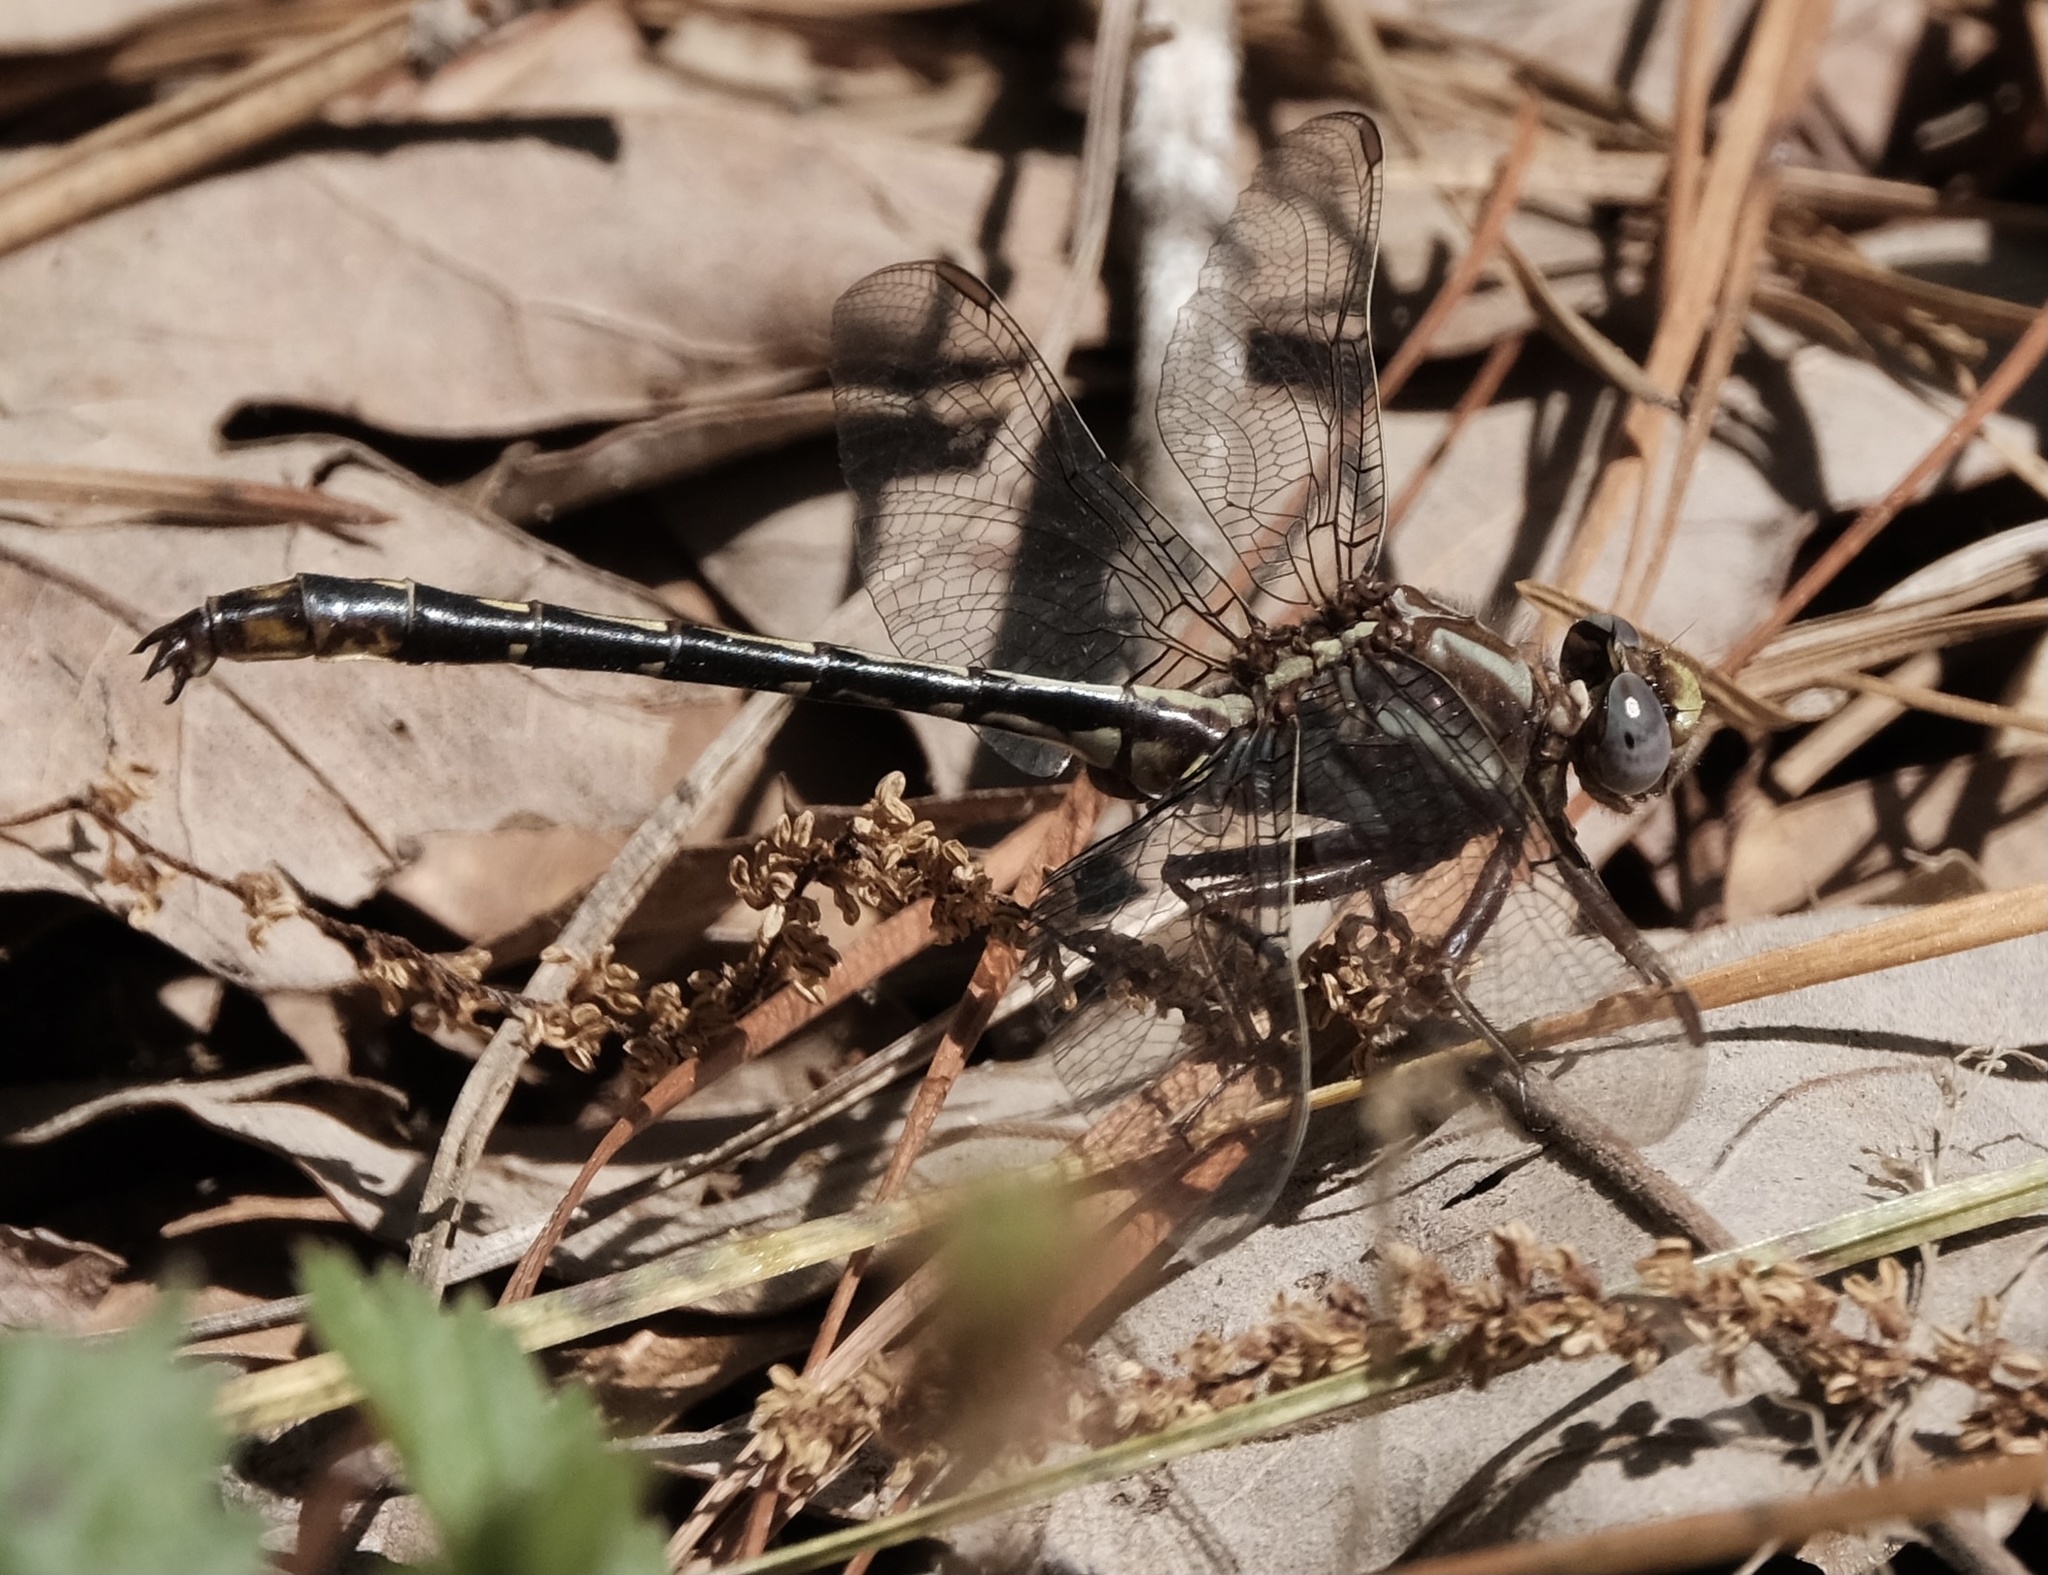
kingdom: Animalia
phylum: Arthropoda
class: Insecta
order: Odonata
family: Gomphidae
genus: Phanogomphus
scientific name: Phanogomphus lividus
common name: Ashy clubtail
